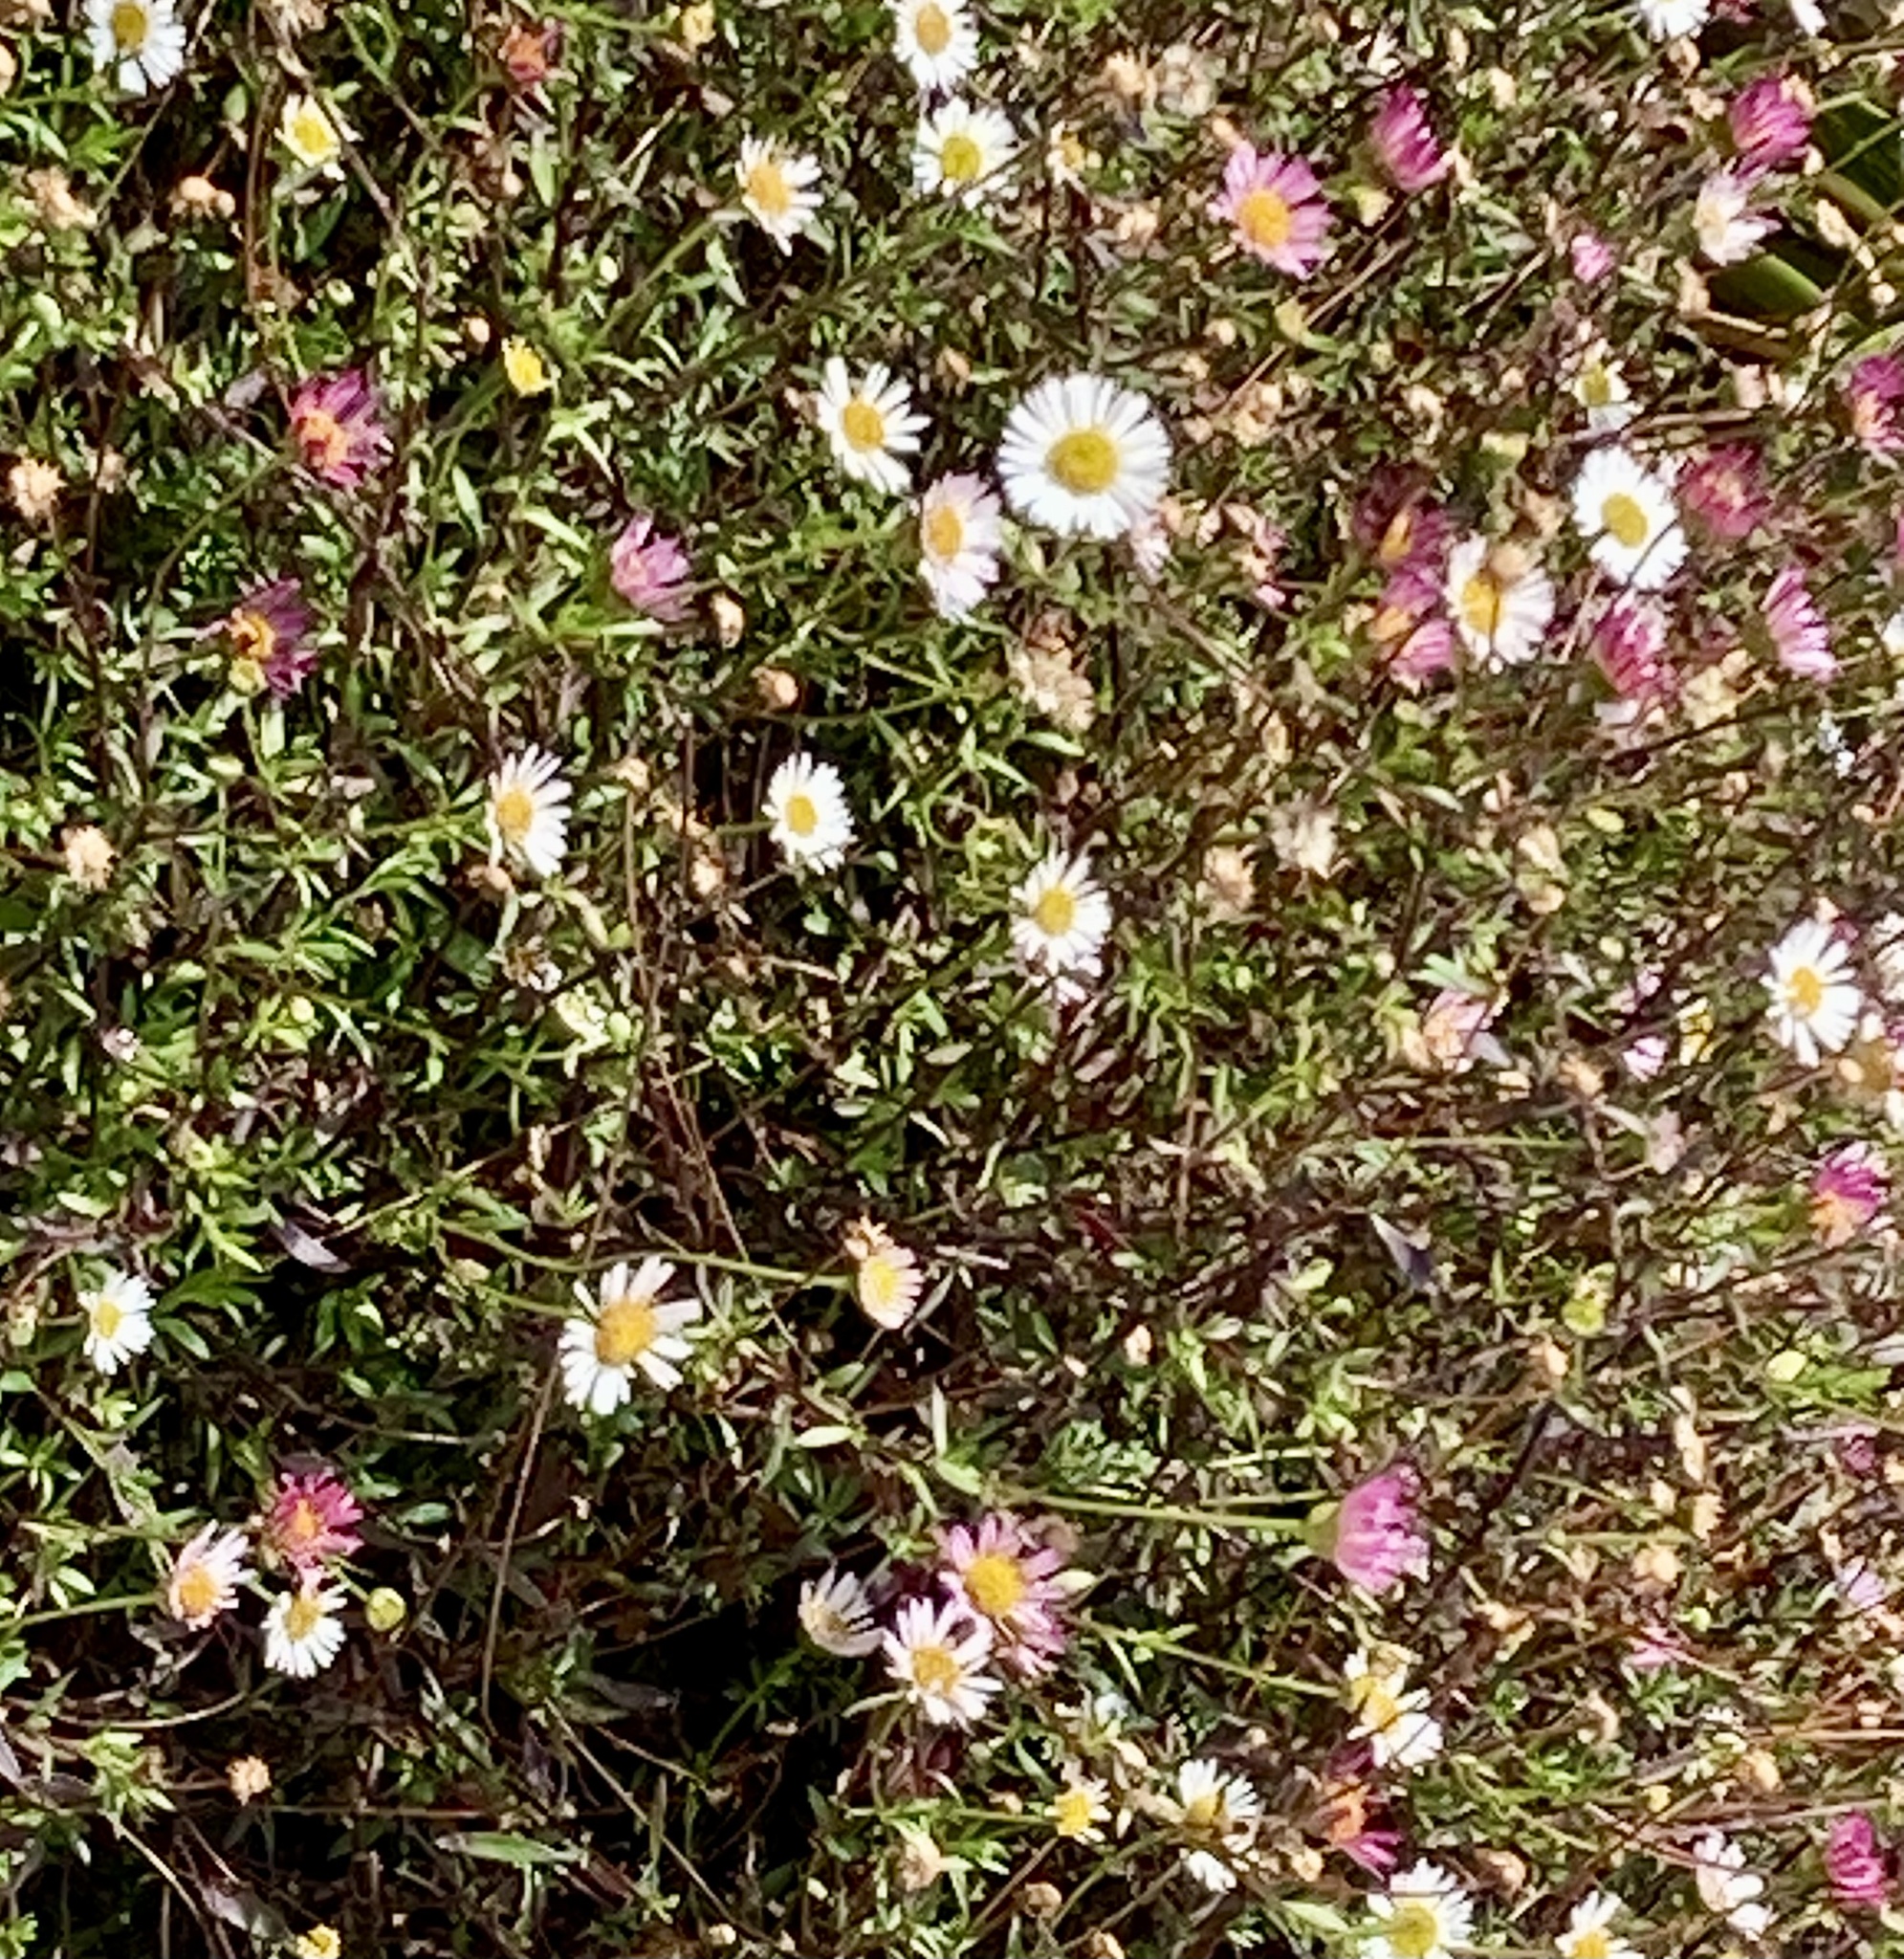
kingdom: Plantae
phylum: Tracheophyta
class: Magnoliopsida
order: Asterales
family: Asteraceae
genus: Erigeron
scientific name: Erigeron karvinskianus
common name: Mexican fleabane
